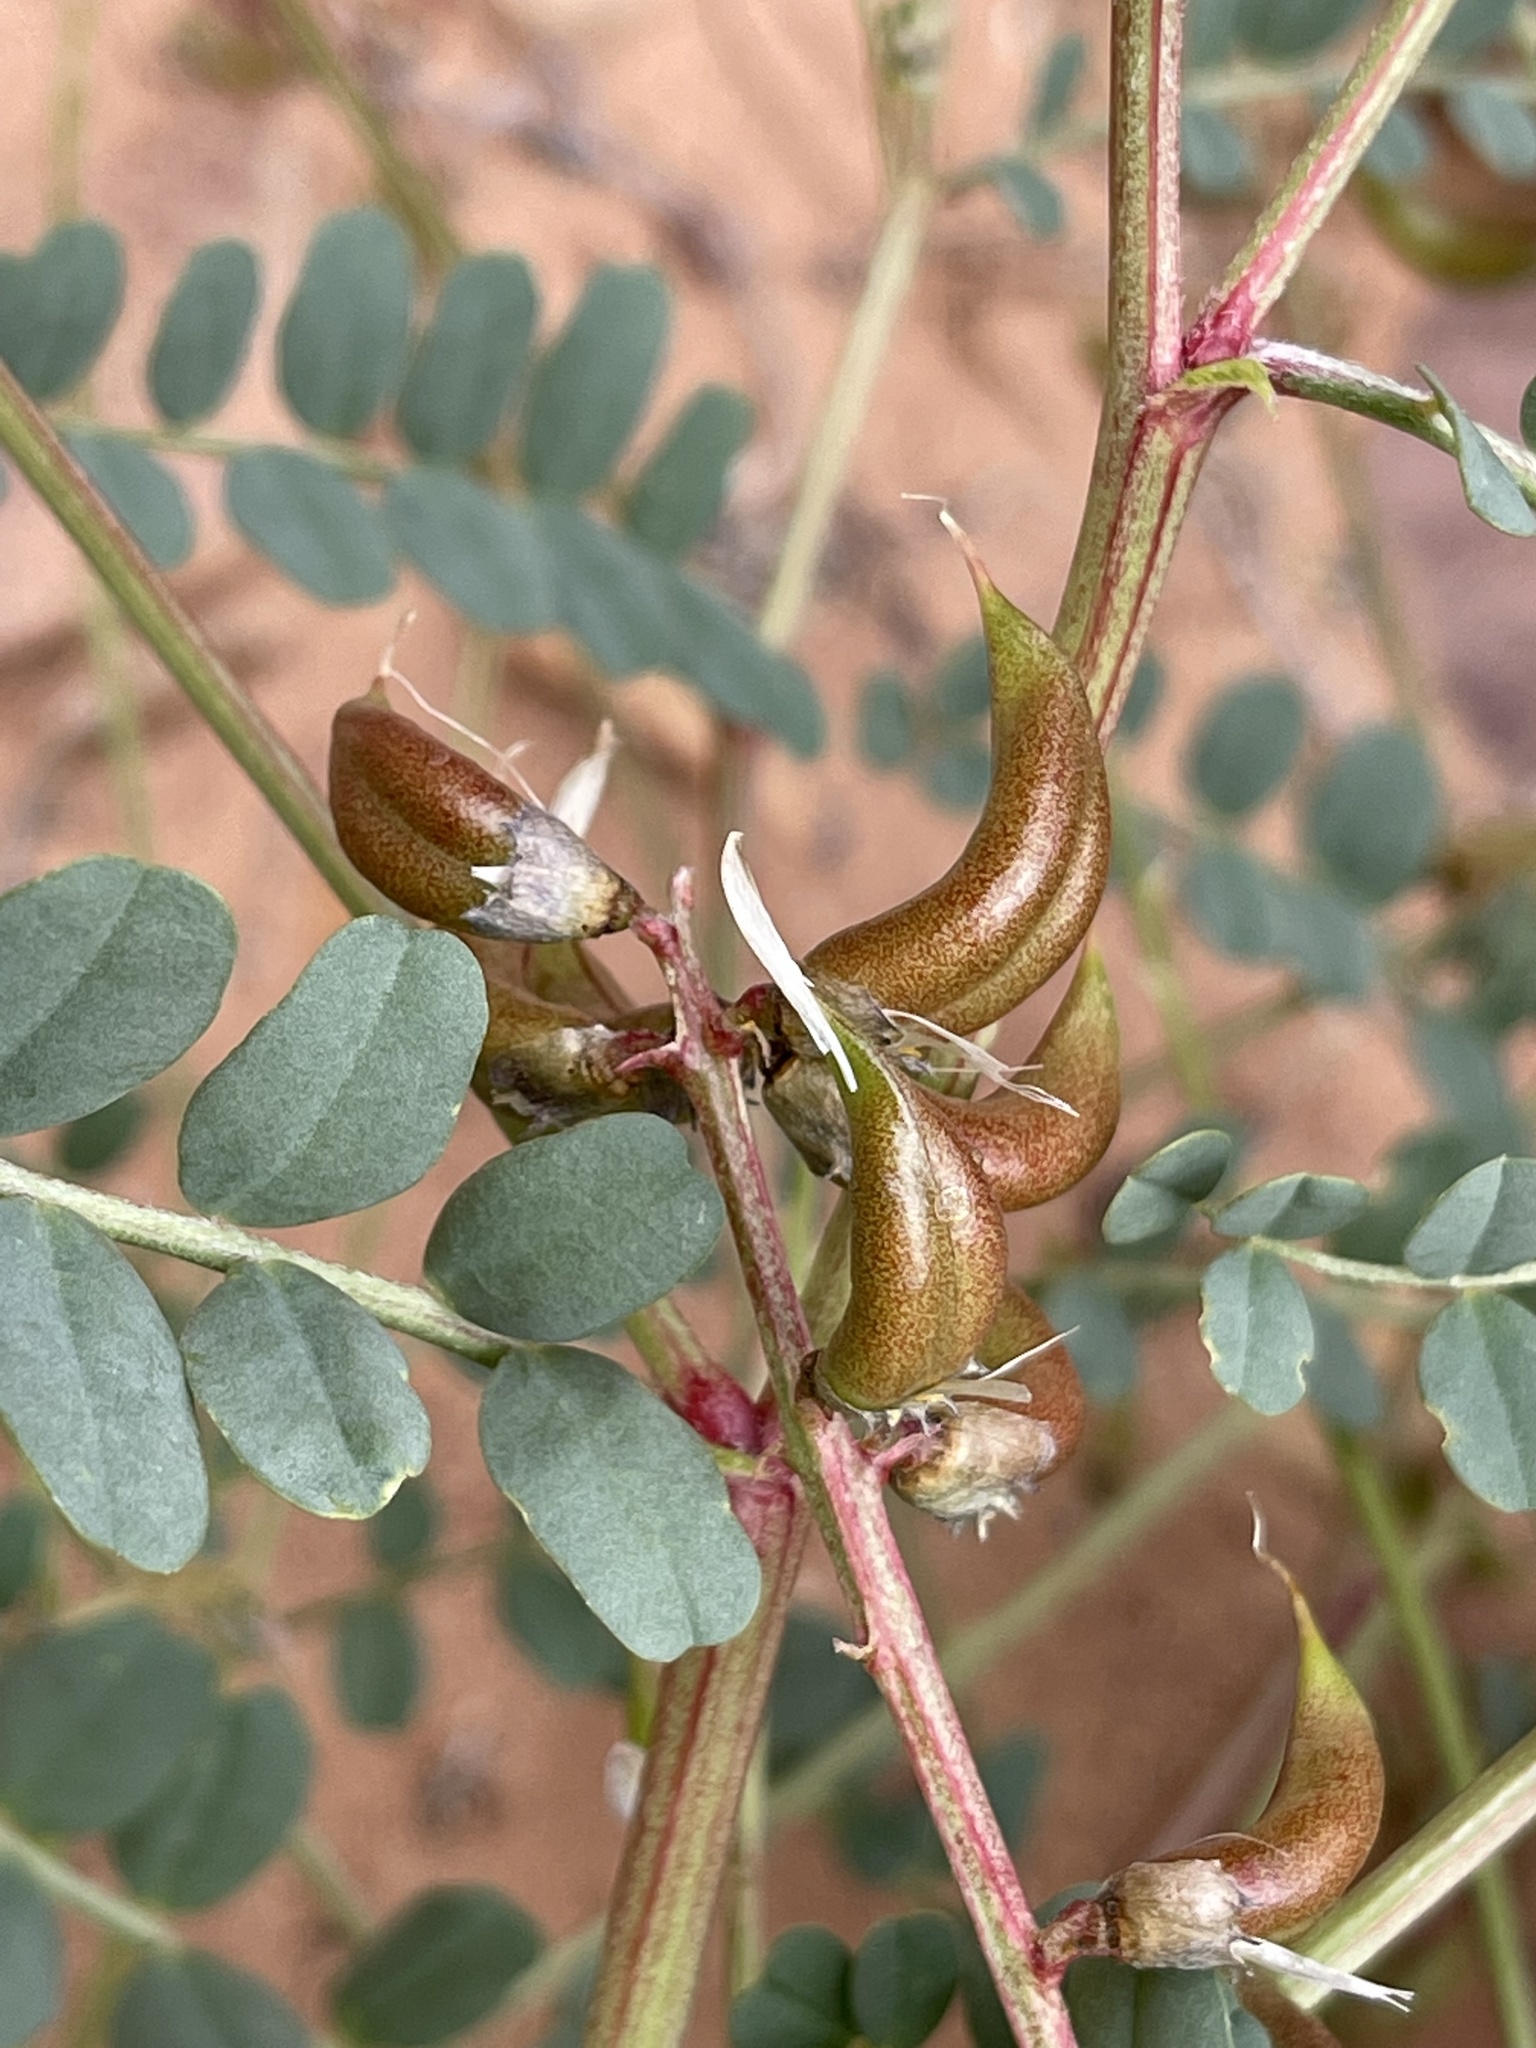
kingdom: Plantae
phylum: Tracheophyta
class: Magnoliopsida
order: Fabales
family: Fabaceae
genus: Astragalus
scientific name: Astragalus lentiginosus
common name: Freckled milkvetch
